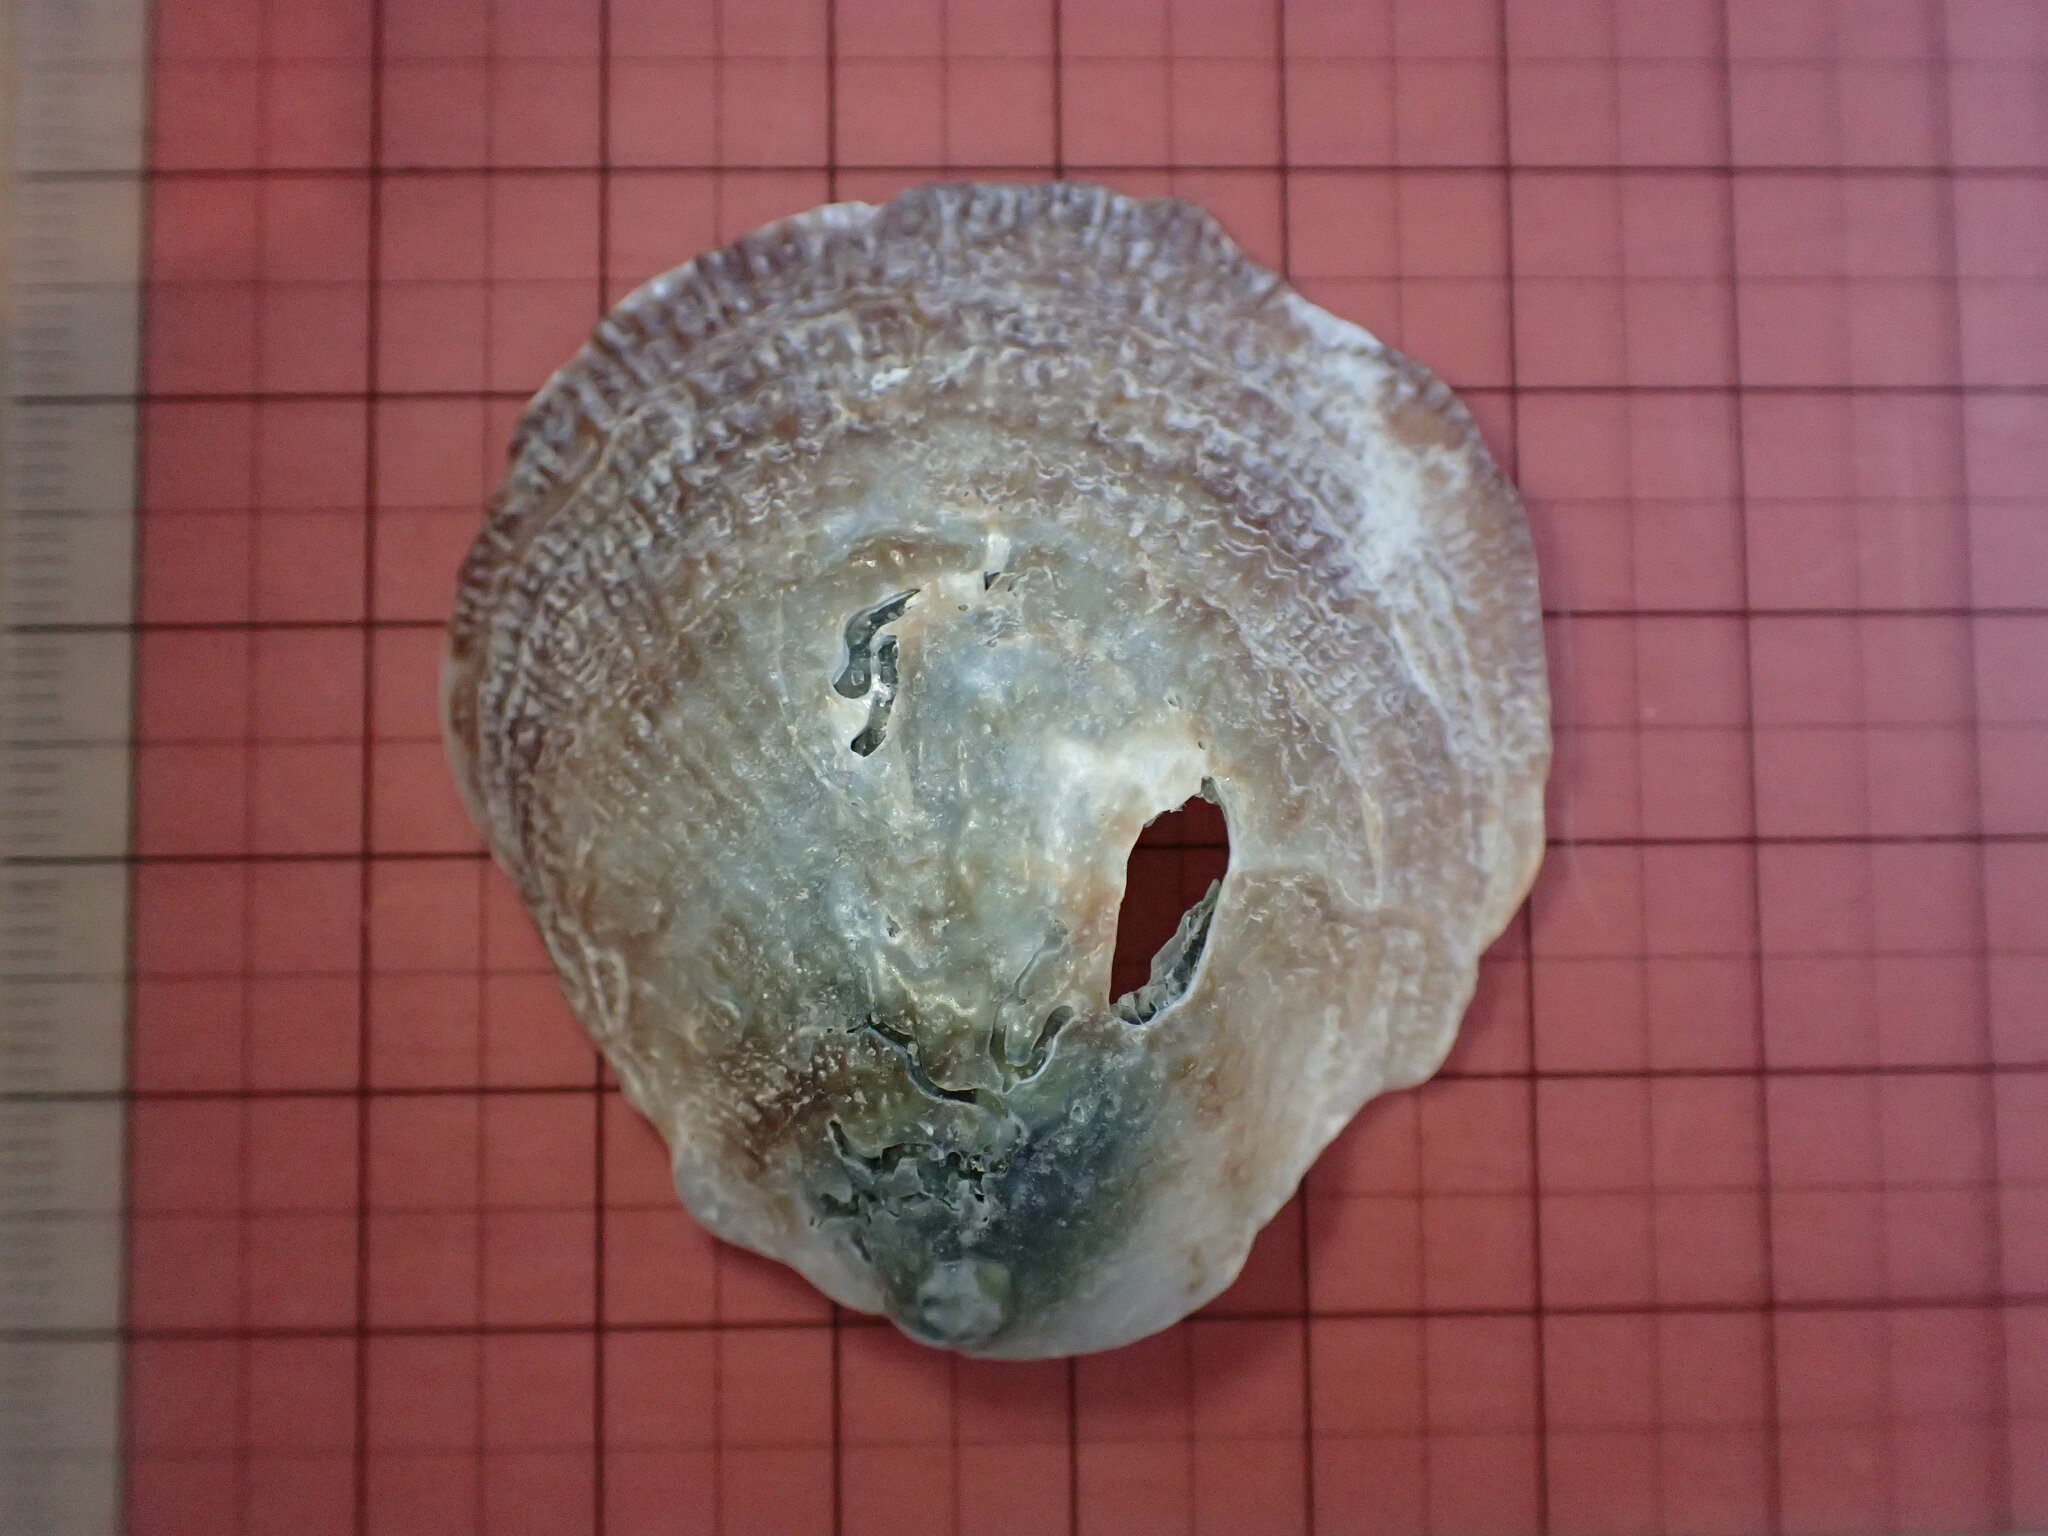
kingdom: Animalia
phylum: Mollusca
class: Bivalvia
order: Pectinida
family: Anomiidae
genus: Pododesmus
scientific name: Pododesmus macrochisma
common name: Alaska jingle
